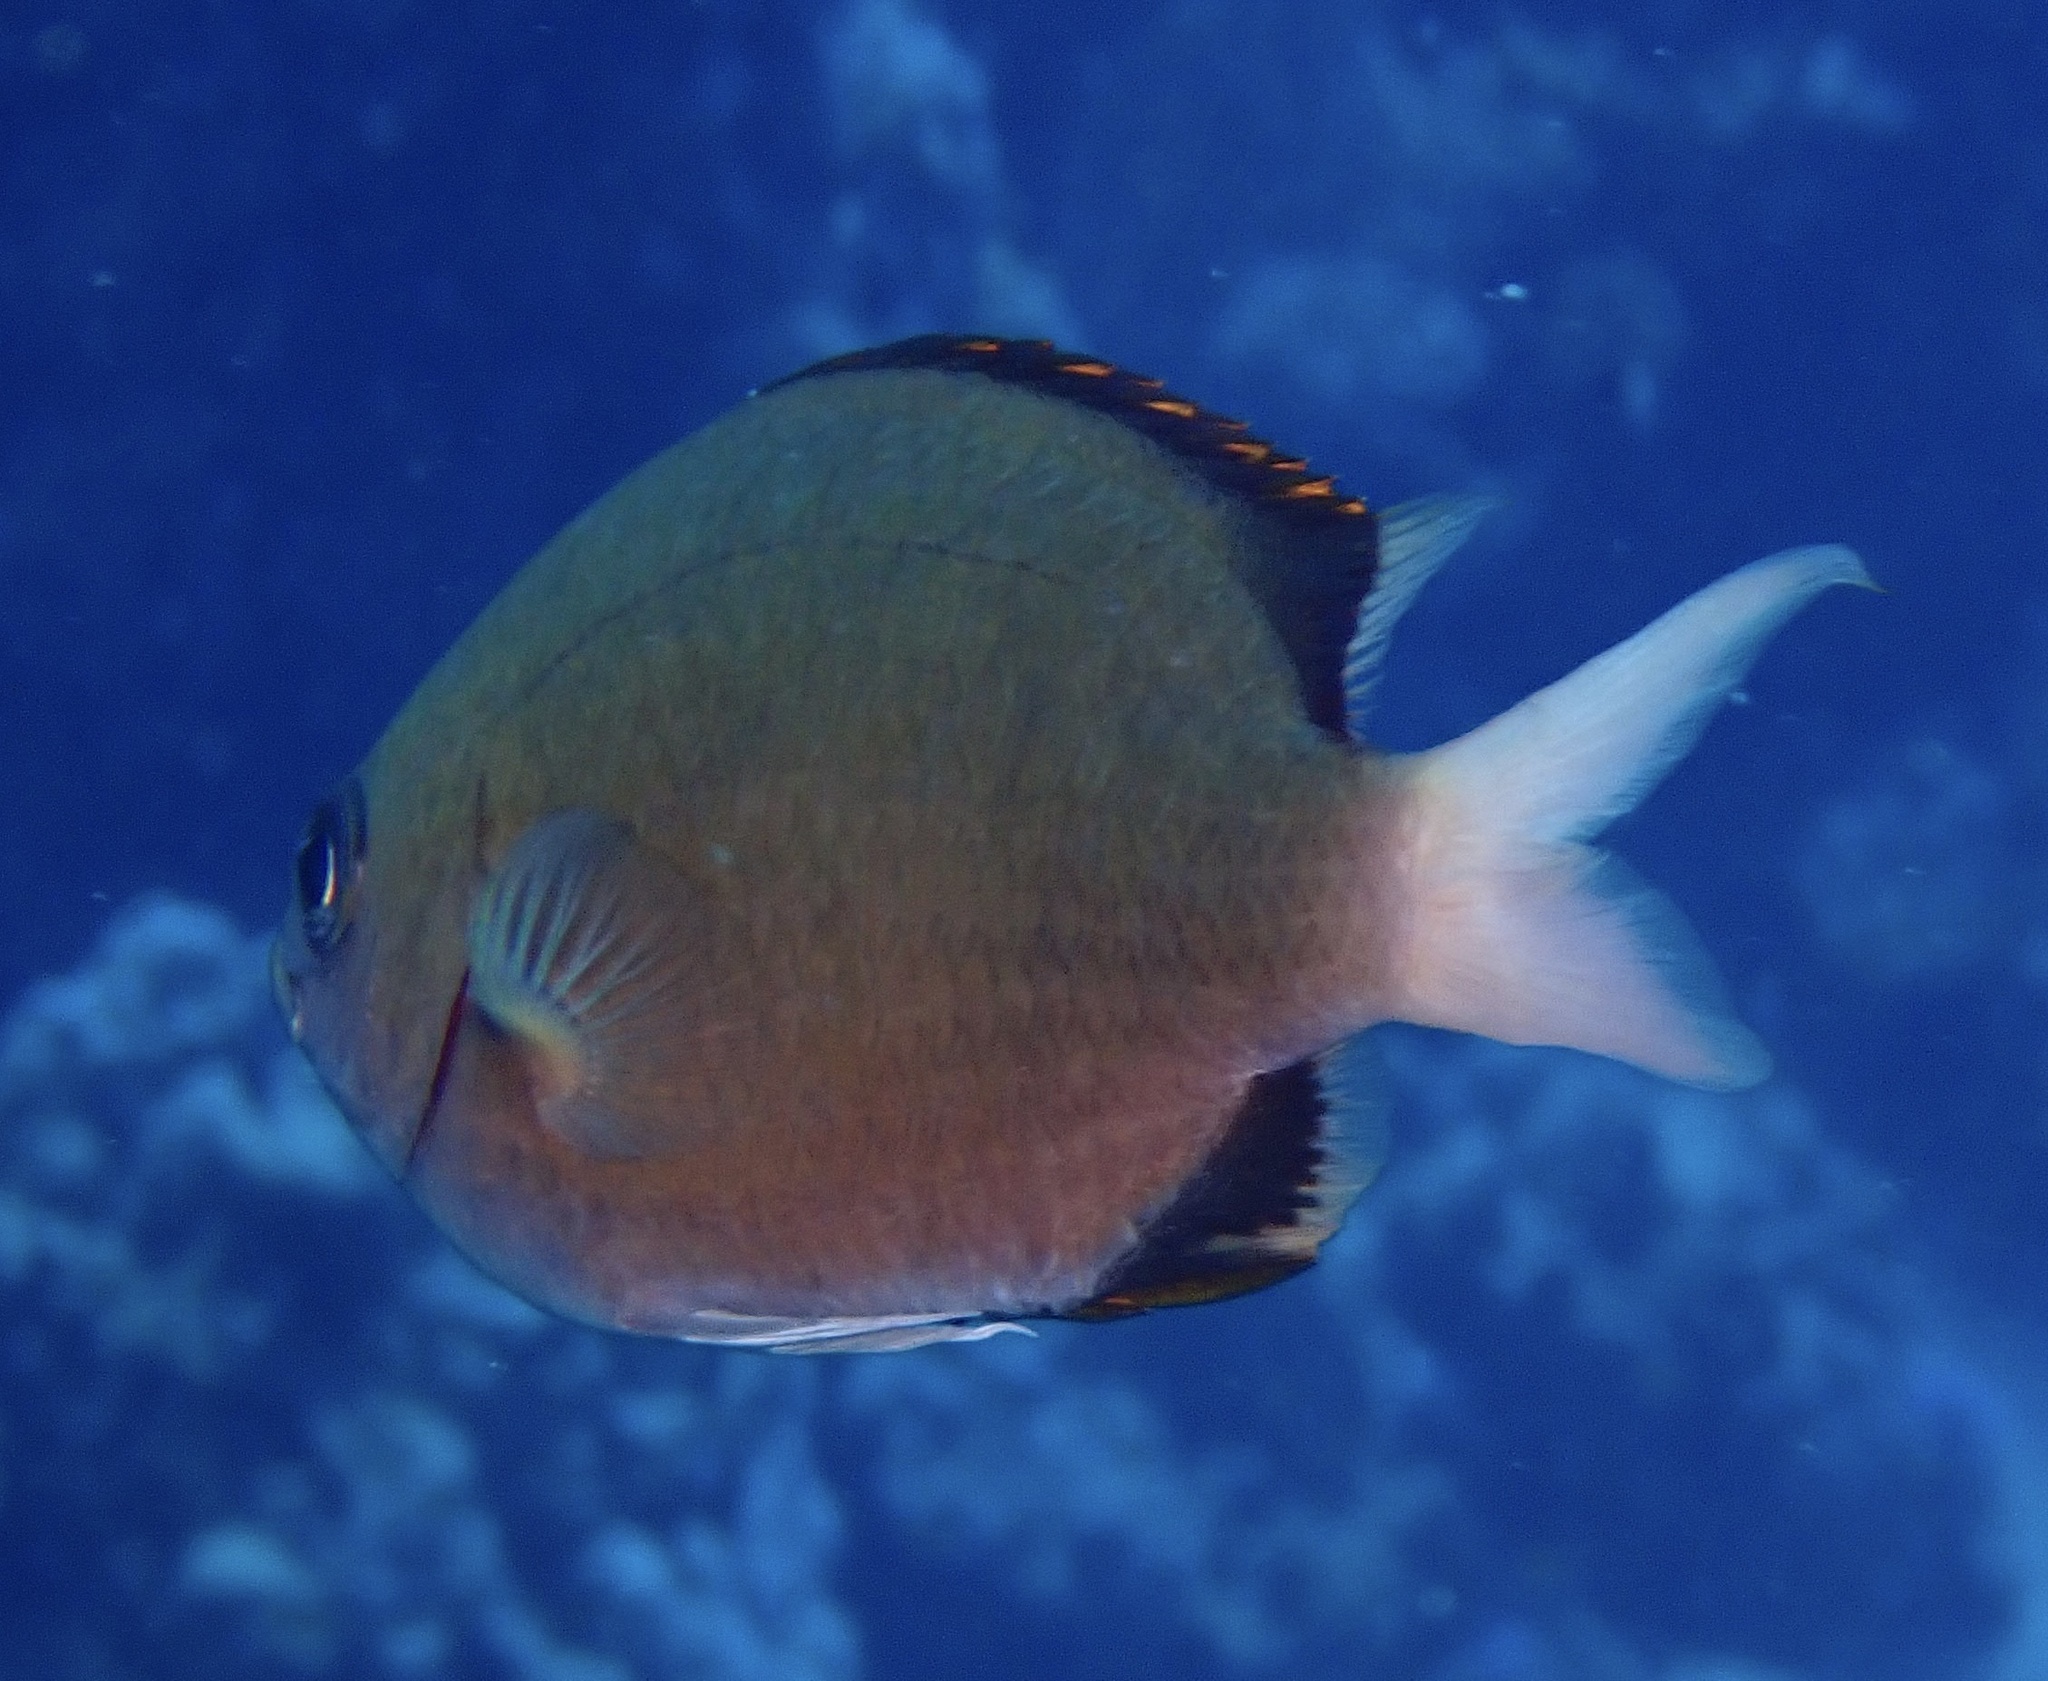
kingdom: Animalia
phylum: Chordata
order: Perciformes
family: Pomacentridae
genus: Chromis
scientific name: Chromis pembae
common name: Pemba chromis
